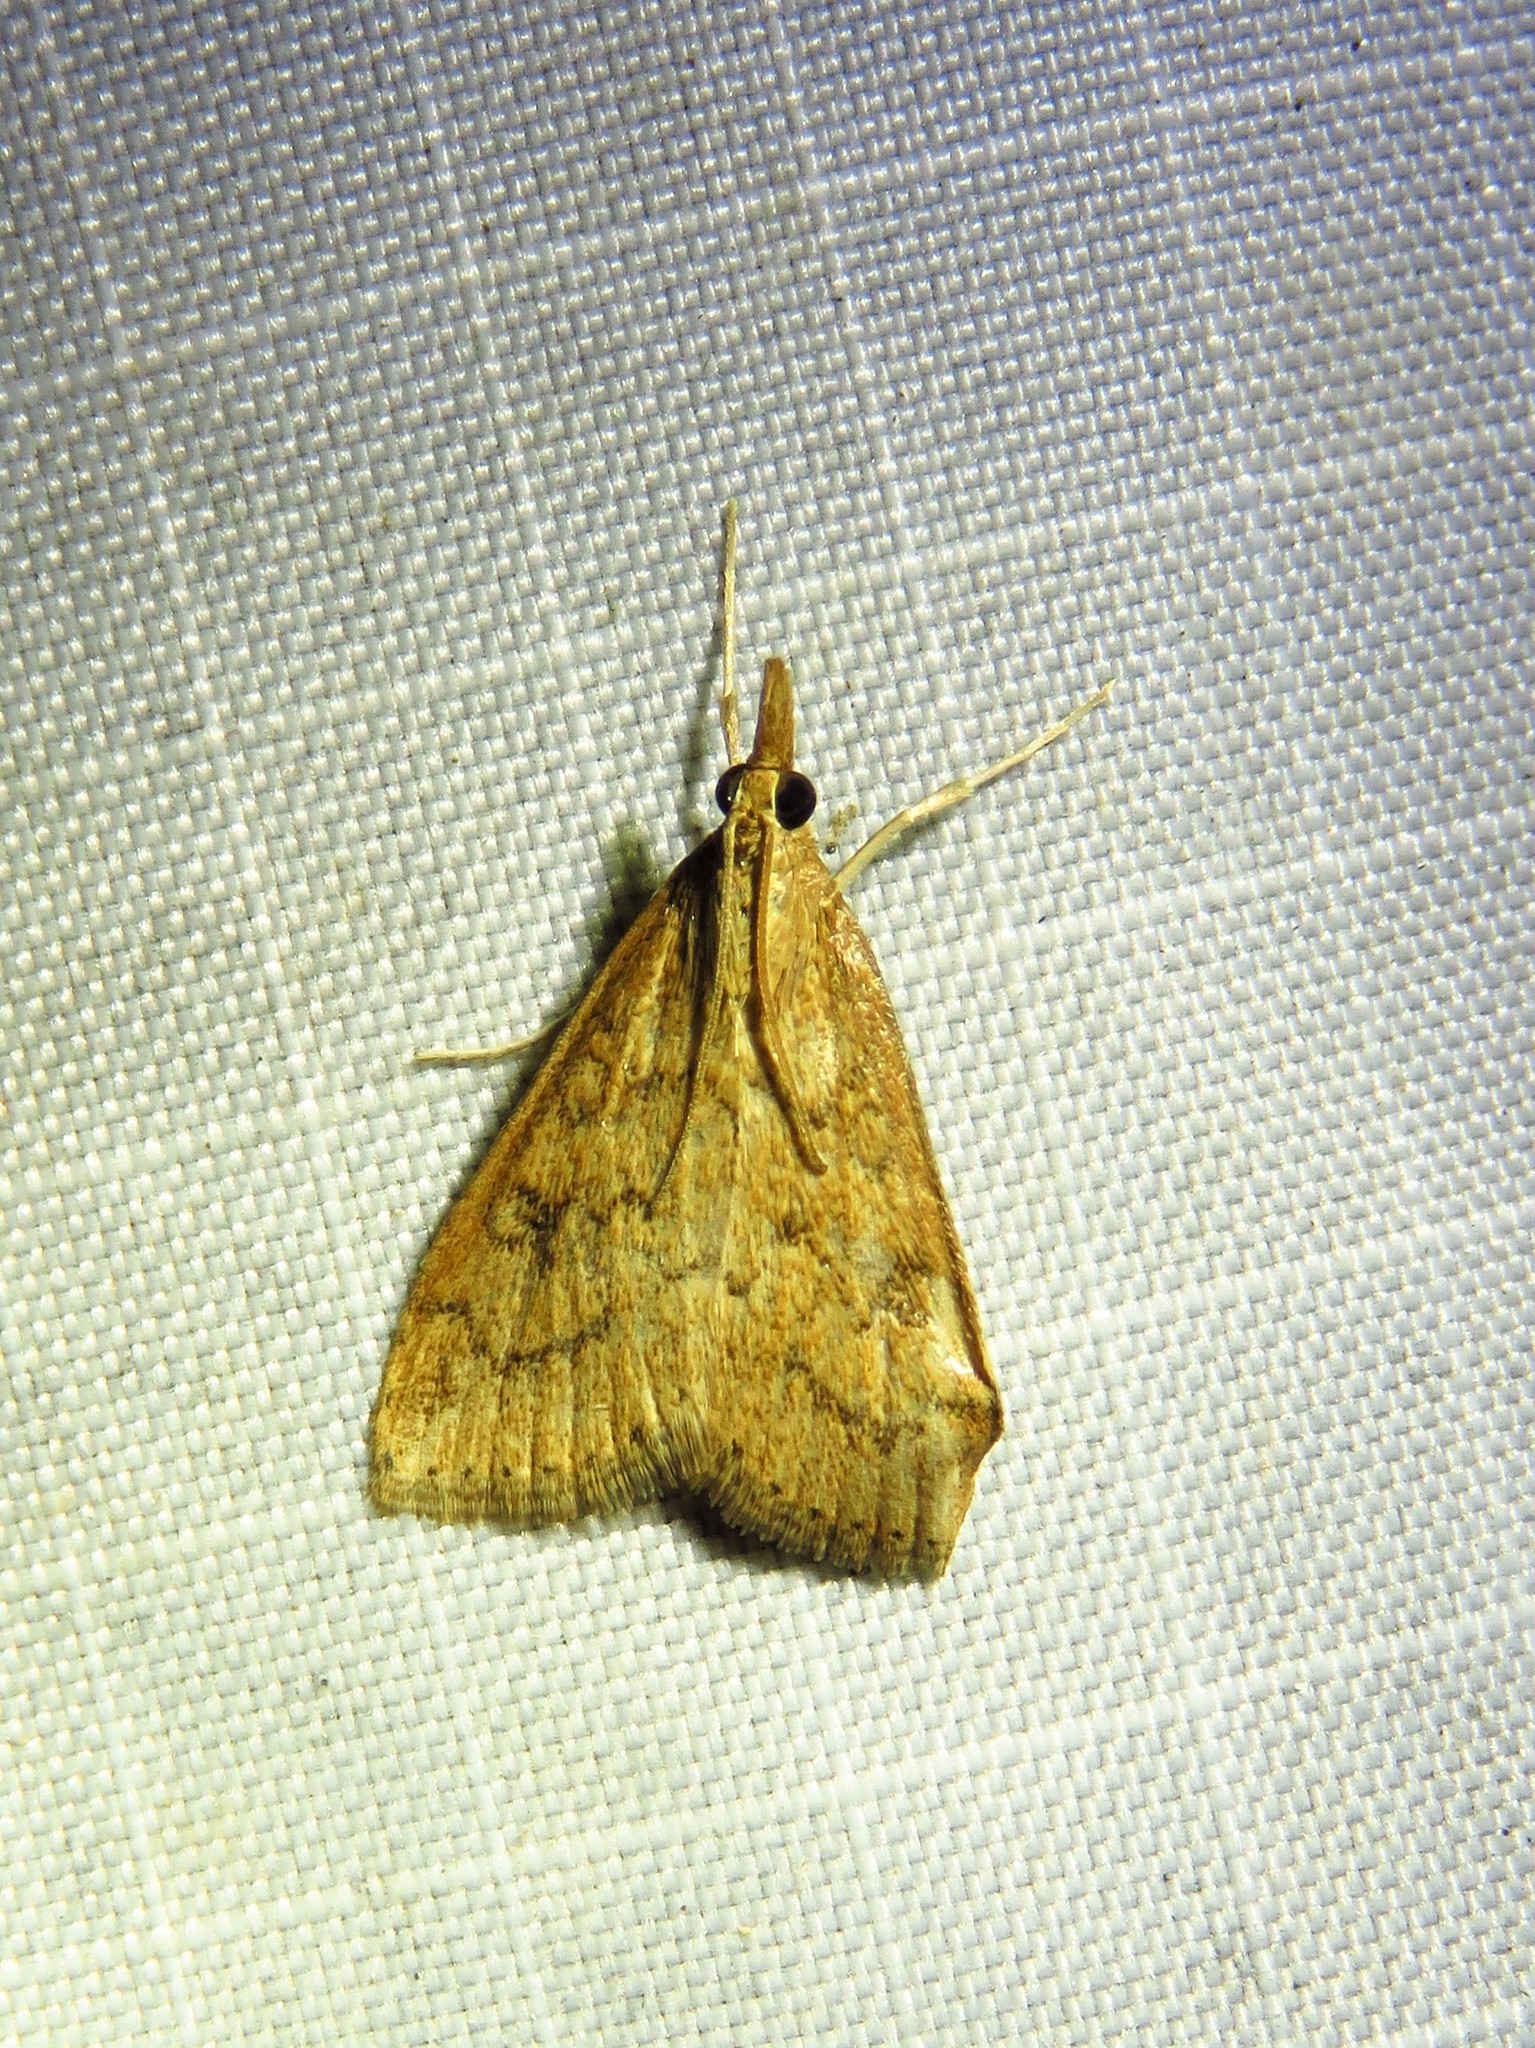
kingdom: Animalia
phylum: Arthropoda
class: Insecta
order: Lepidoptera
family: Crambidae
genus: Udea
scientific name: Udea rubigalis
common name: Celery leaftier moth
